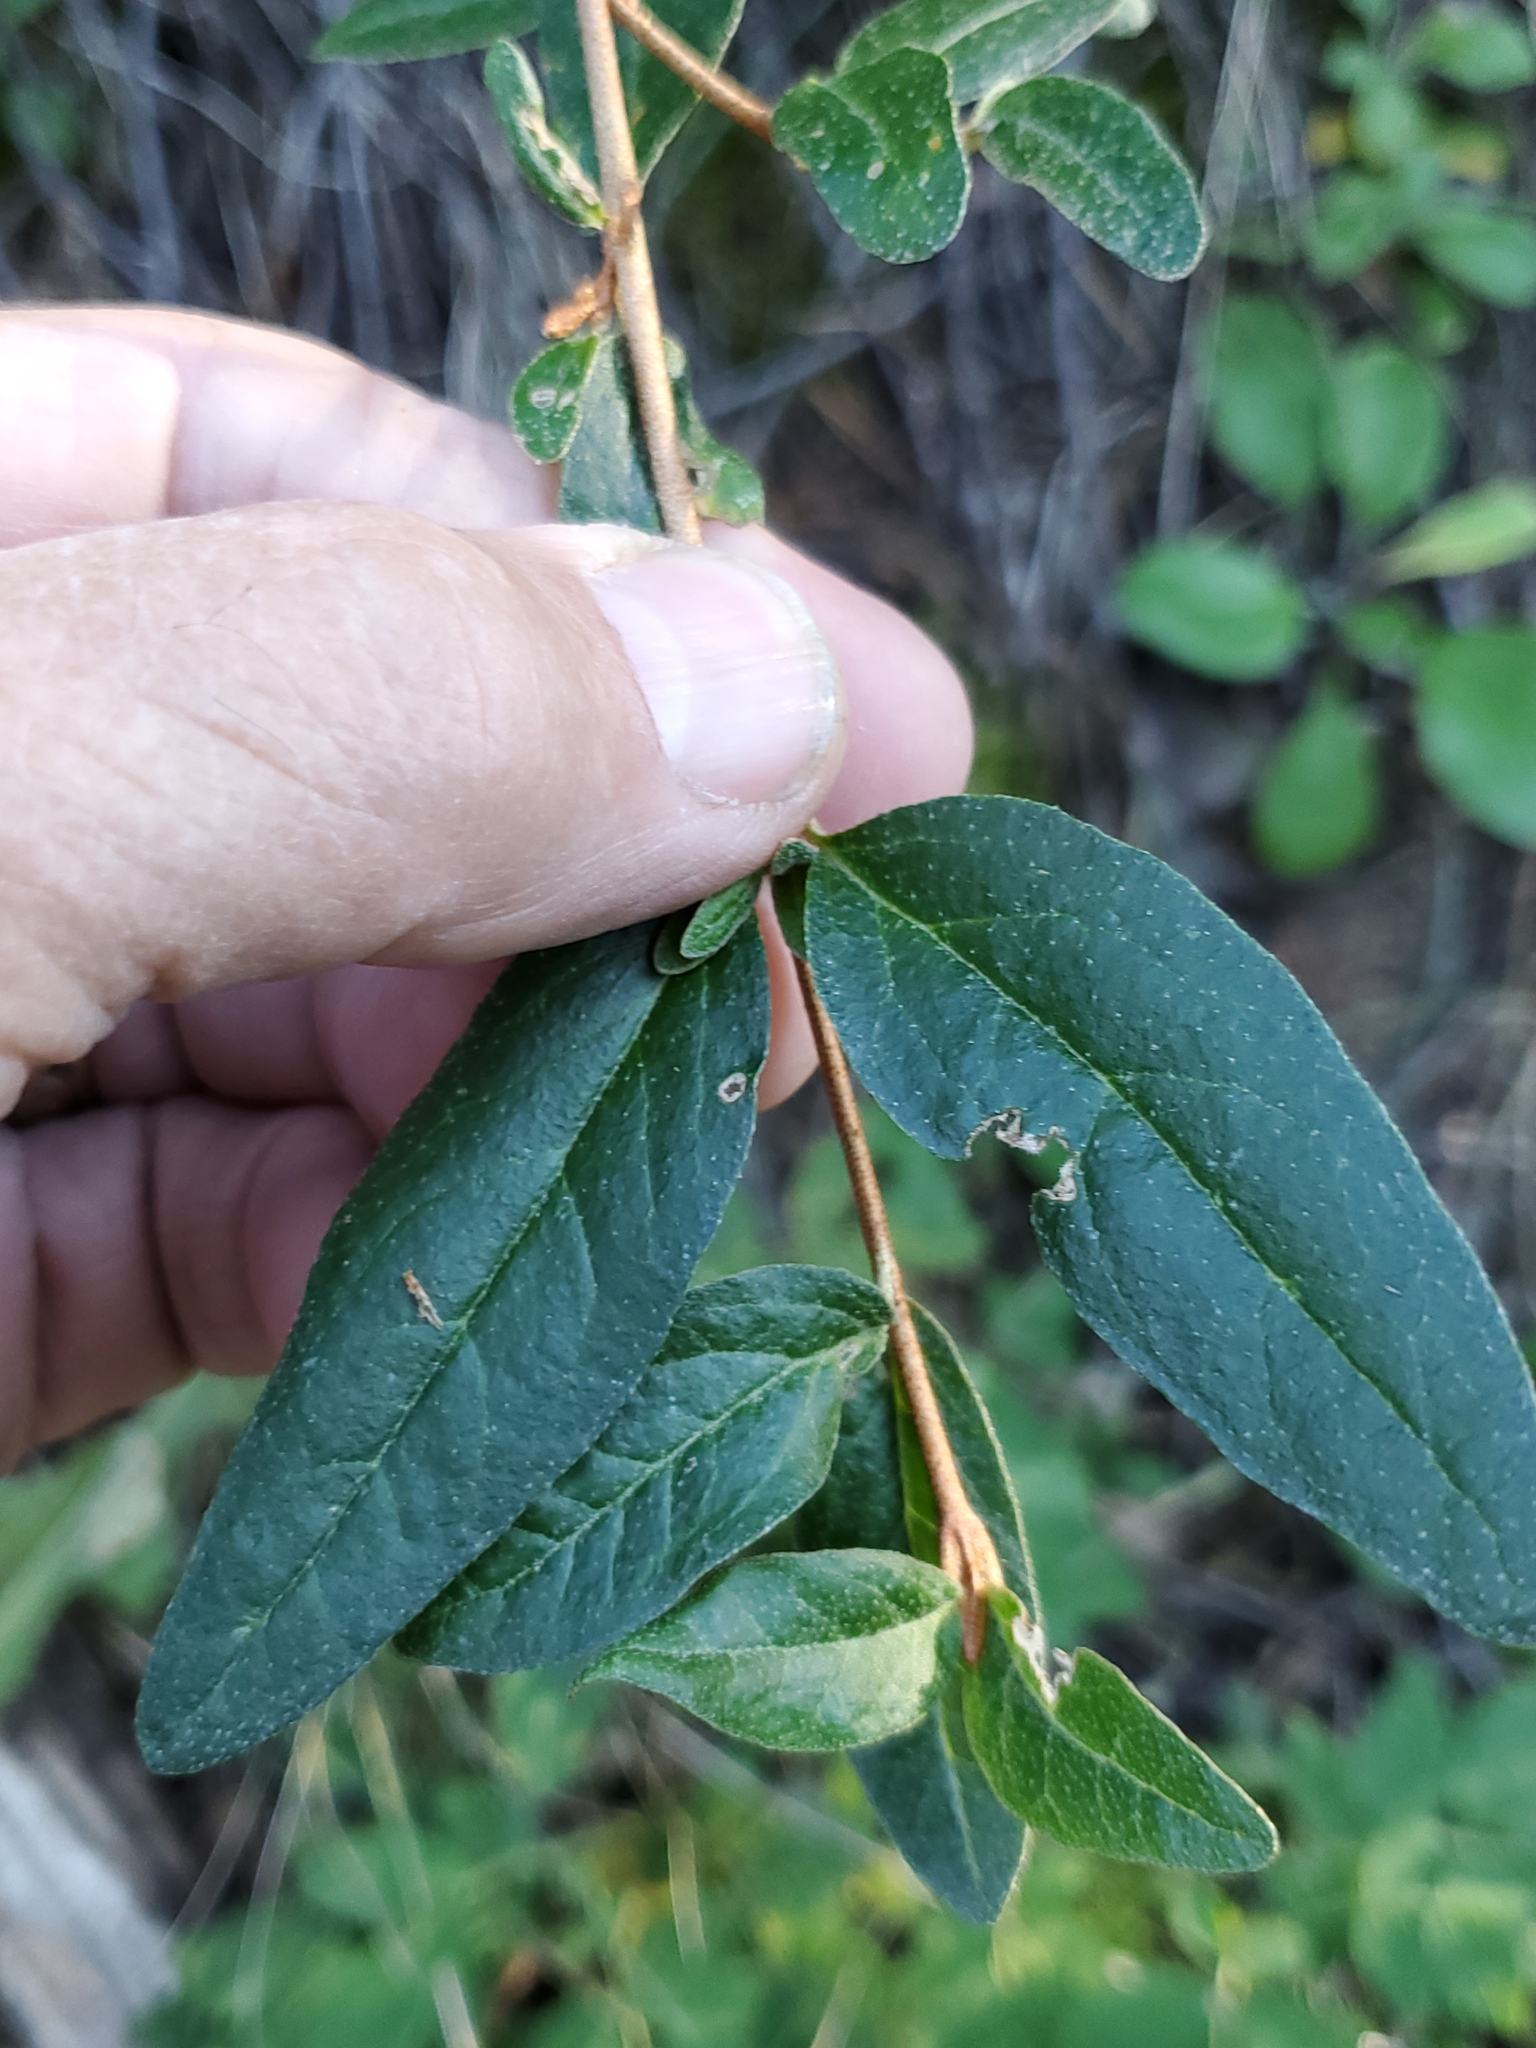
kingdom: Plantae
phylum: Tracheophyta
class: Magnoliopsida
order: Rosales
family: Elaeagnaceae
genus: Shepherdia
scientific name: Shepherdia canadensis
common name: Soapberry
